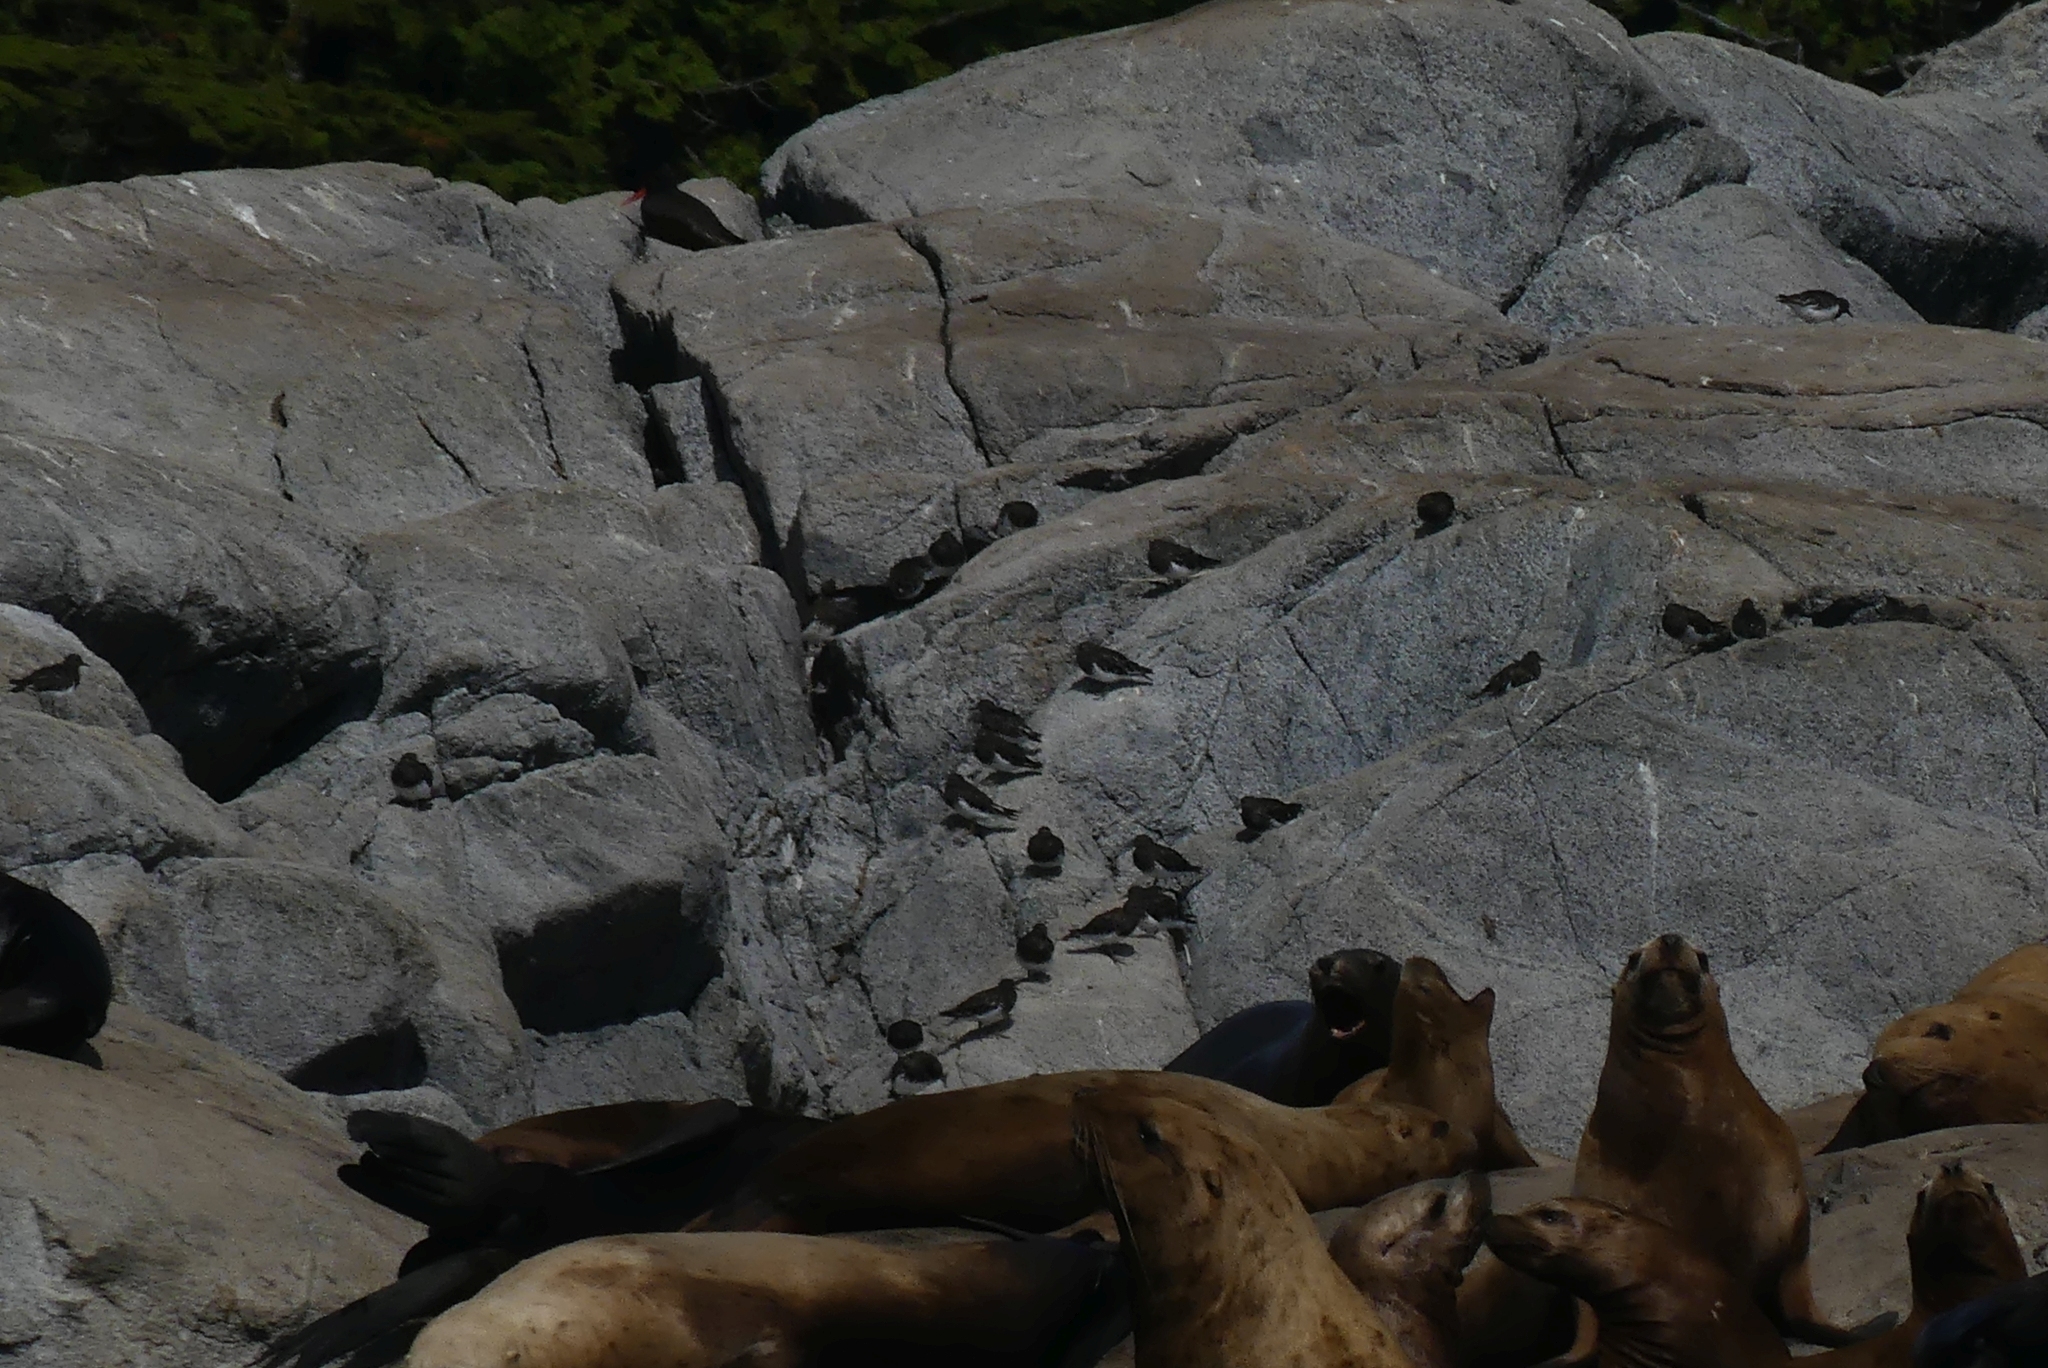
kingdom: Animalia
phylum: Chordata
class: Aves
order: Charadriiformes
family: Scolopacidae
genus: Arenaria
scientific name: Arenaria melanocephala
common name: Black turnstone
